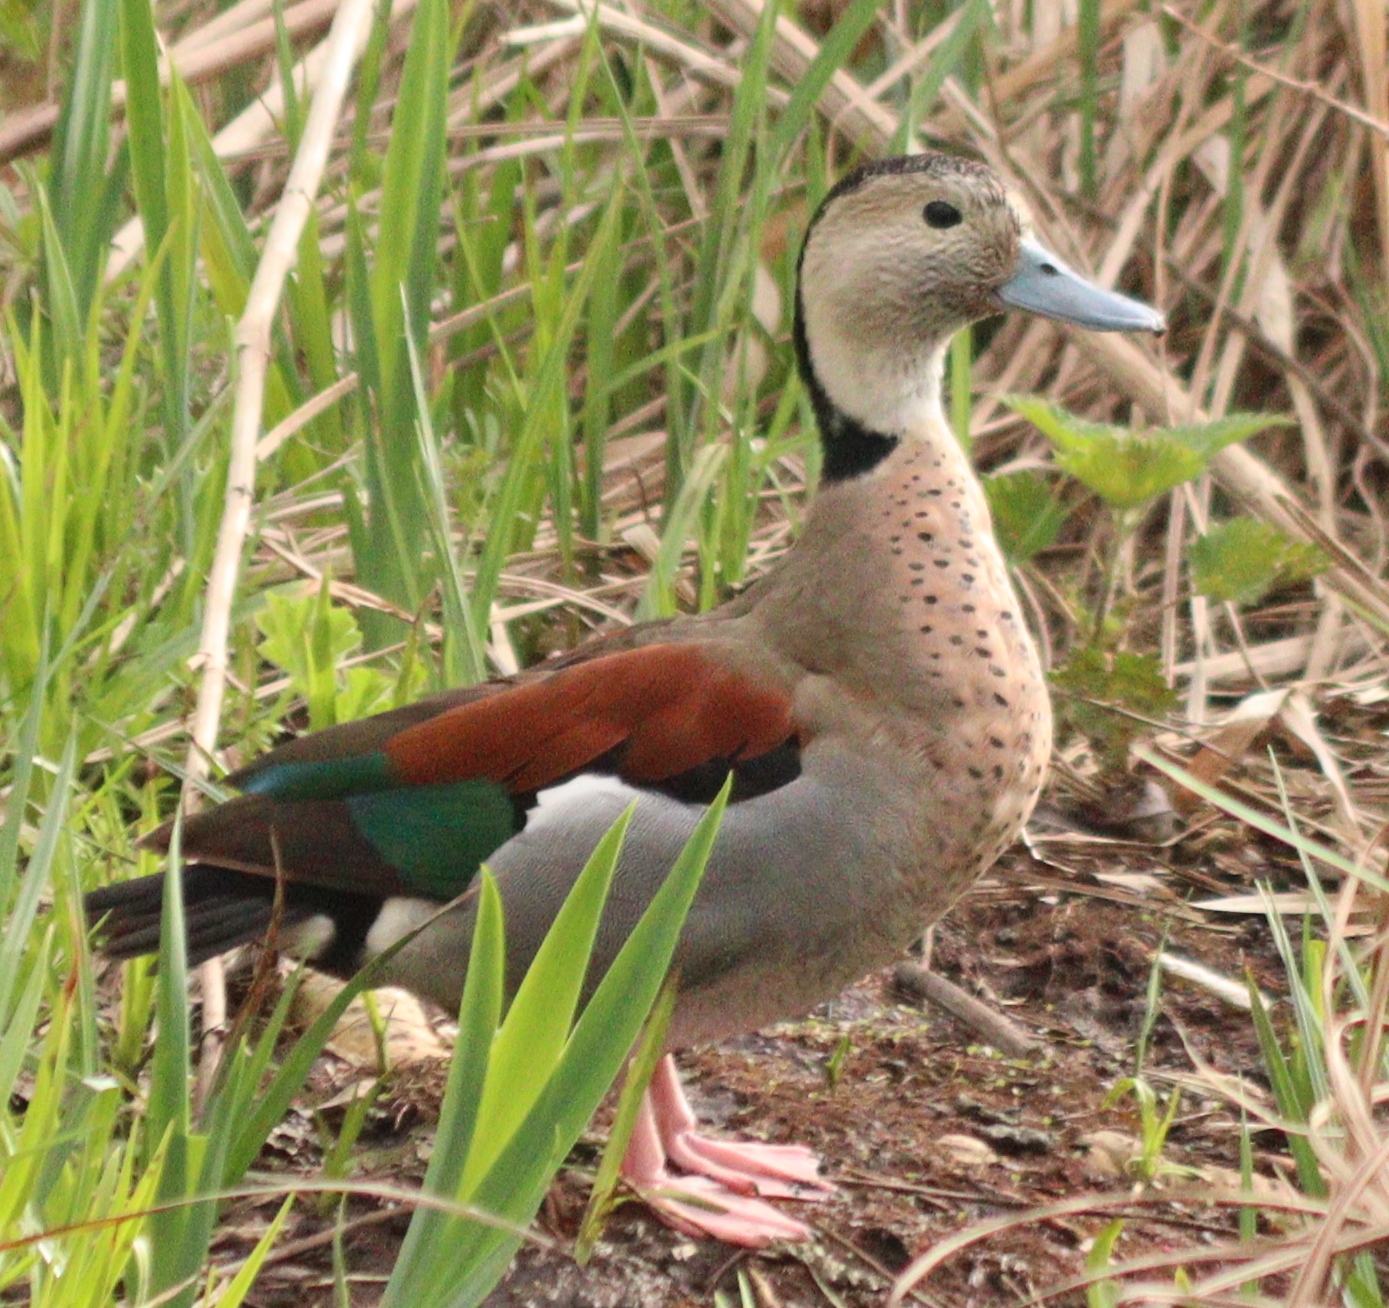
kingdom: Animalia
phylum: Chordata
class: Aves
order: Anseriformes
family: Anatidae
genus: Callonetta
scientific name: Callonetta leucophrys
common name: Ringed teal
